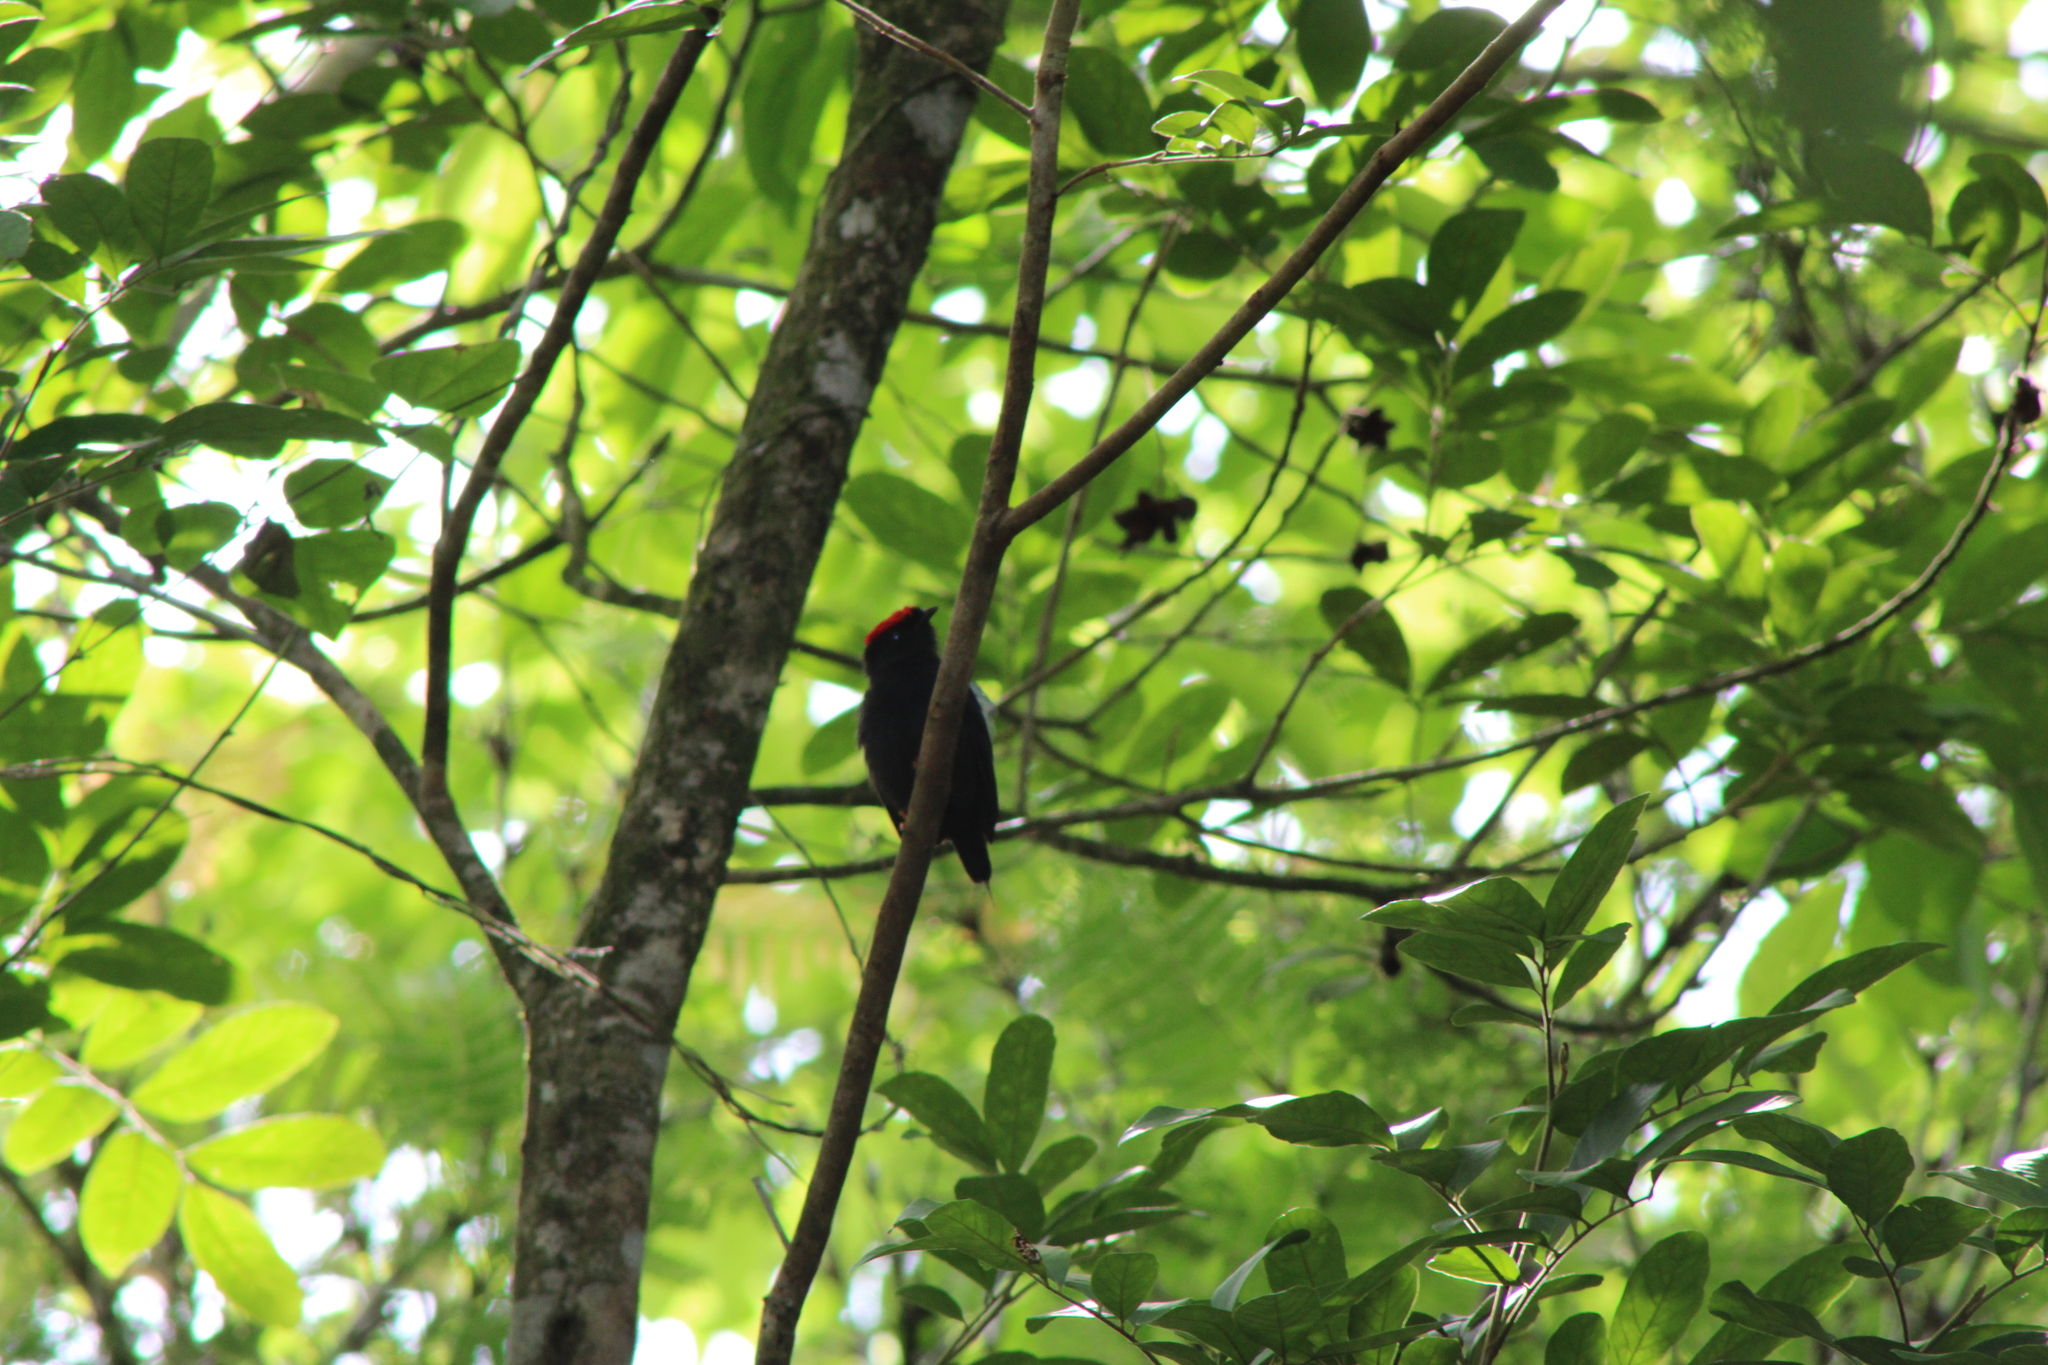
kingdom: Animalia
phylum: Chordata
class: Aves
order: Passeriformes
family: Pipridae
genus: Chiroxiphia
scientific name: Chiroxiphia lanceolata
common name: Lance-tailed manakin
